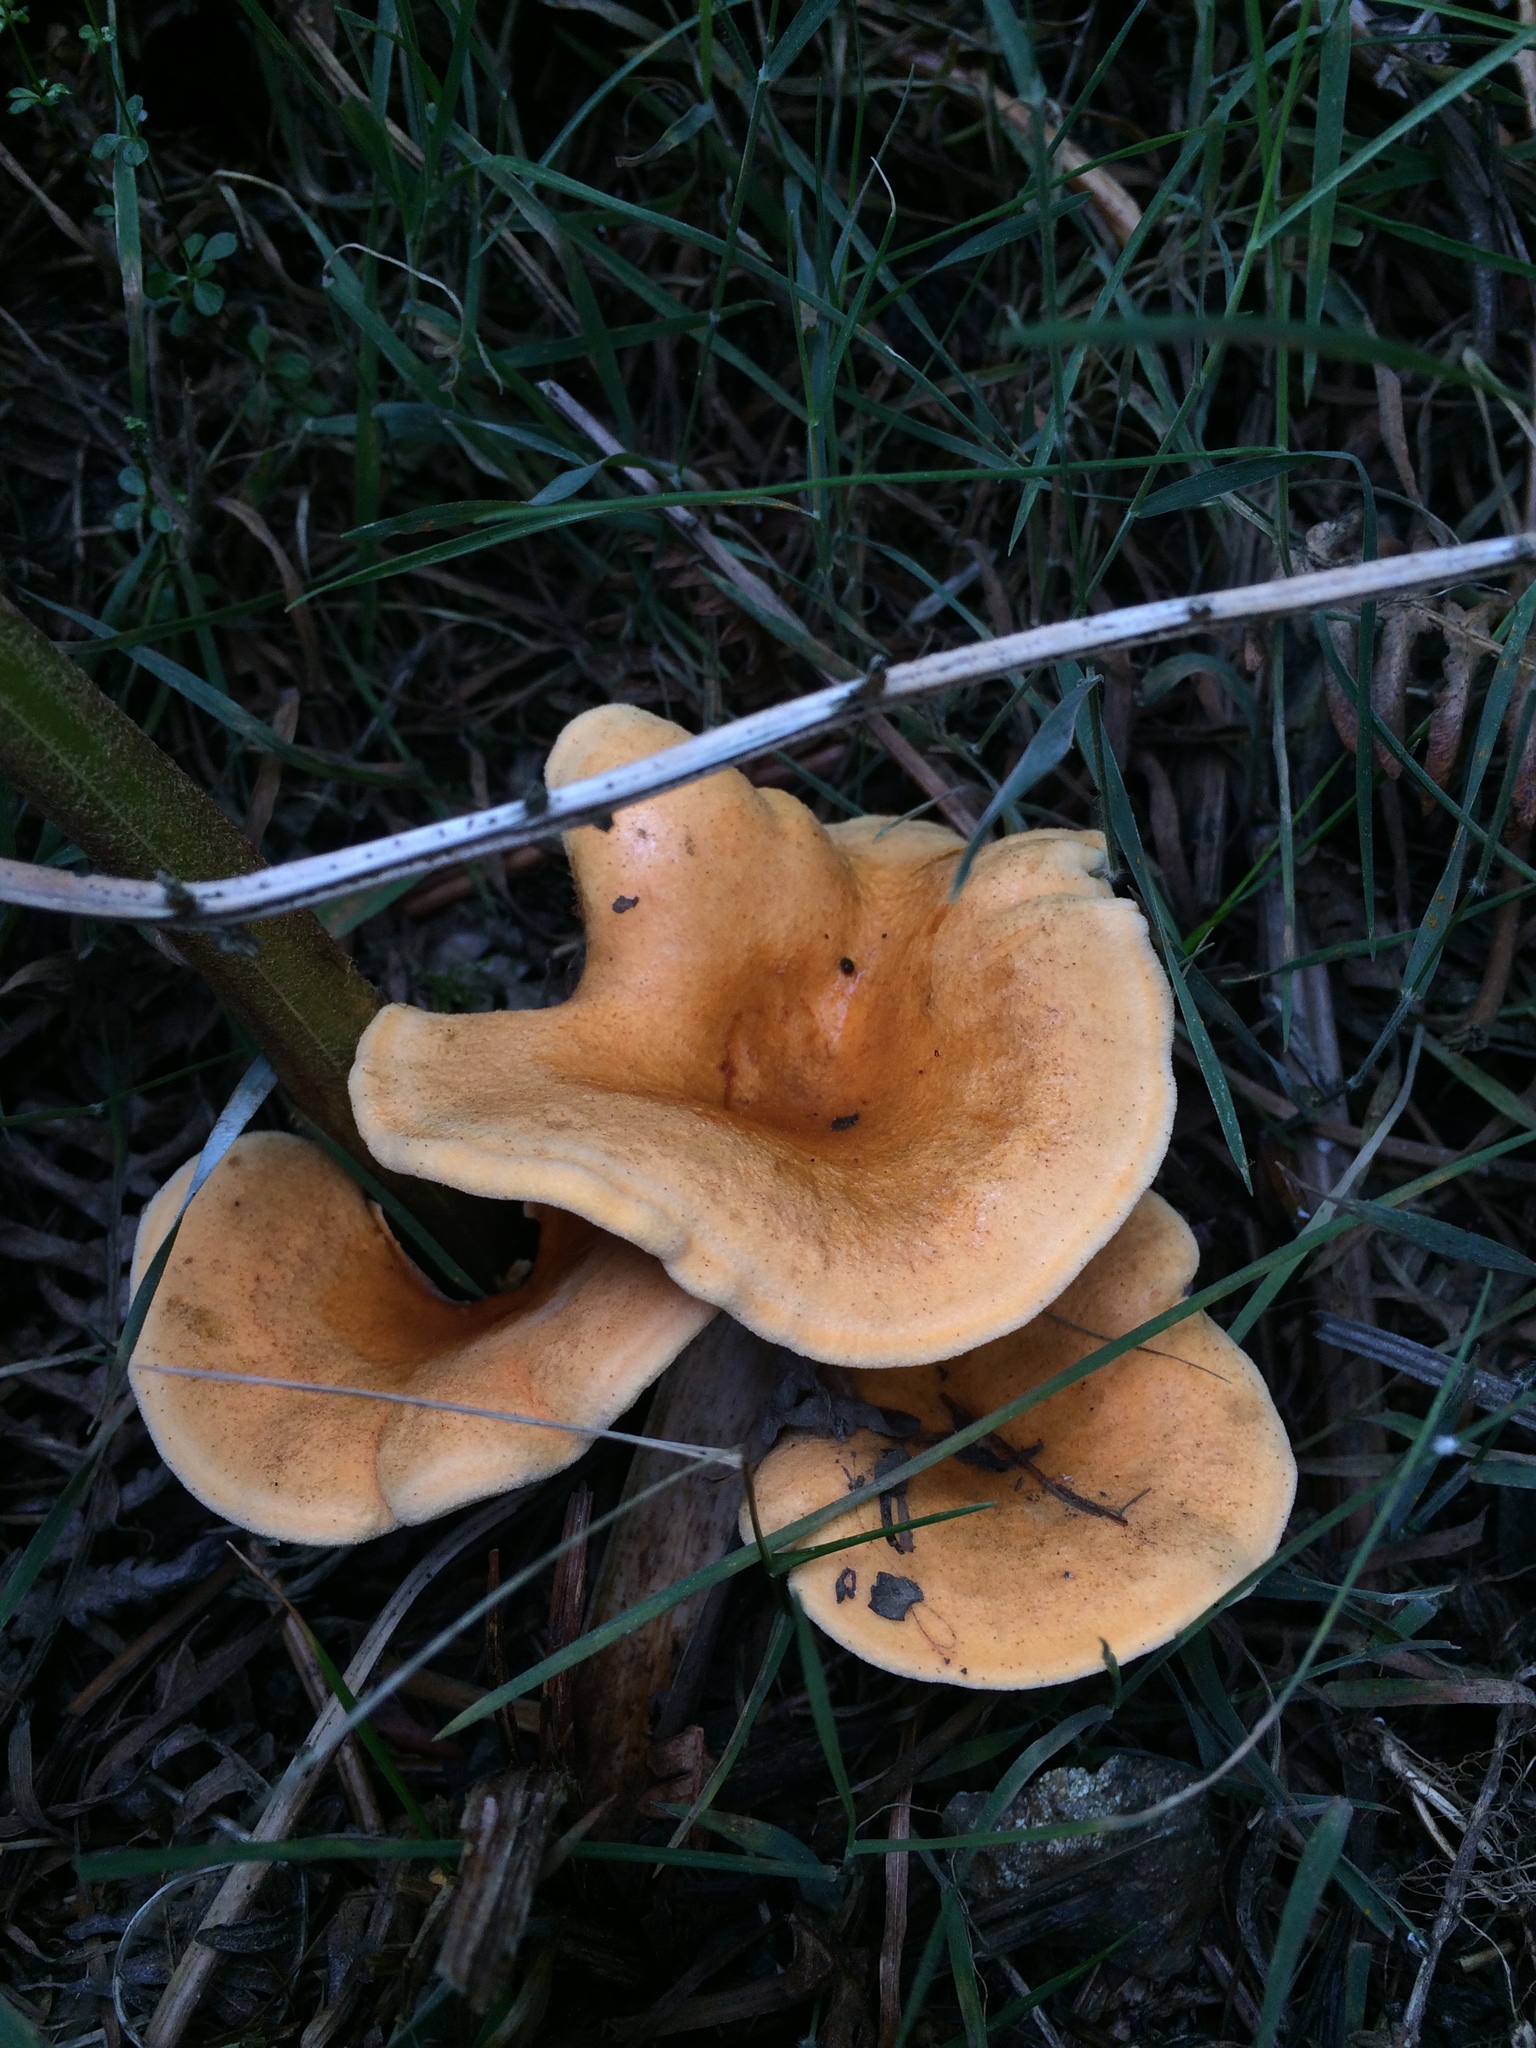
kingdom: Fungi
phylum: Basidiomycota
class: Agaricomycetes
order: Boletales
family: Hygrophoropsidaceae
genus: Hygrophoropsis
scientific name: Hygrophoropsis aurantiaca
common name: False chanterelle
